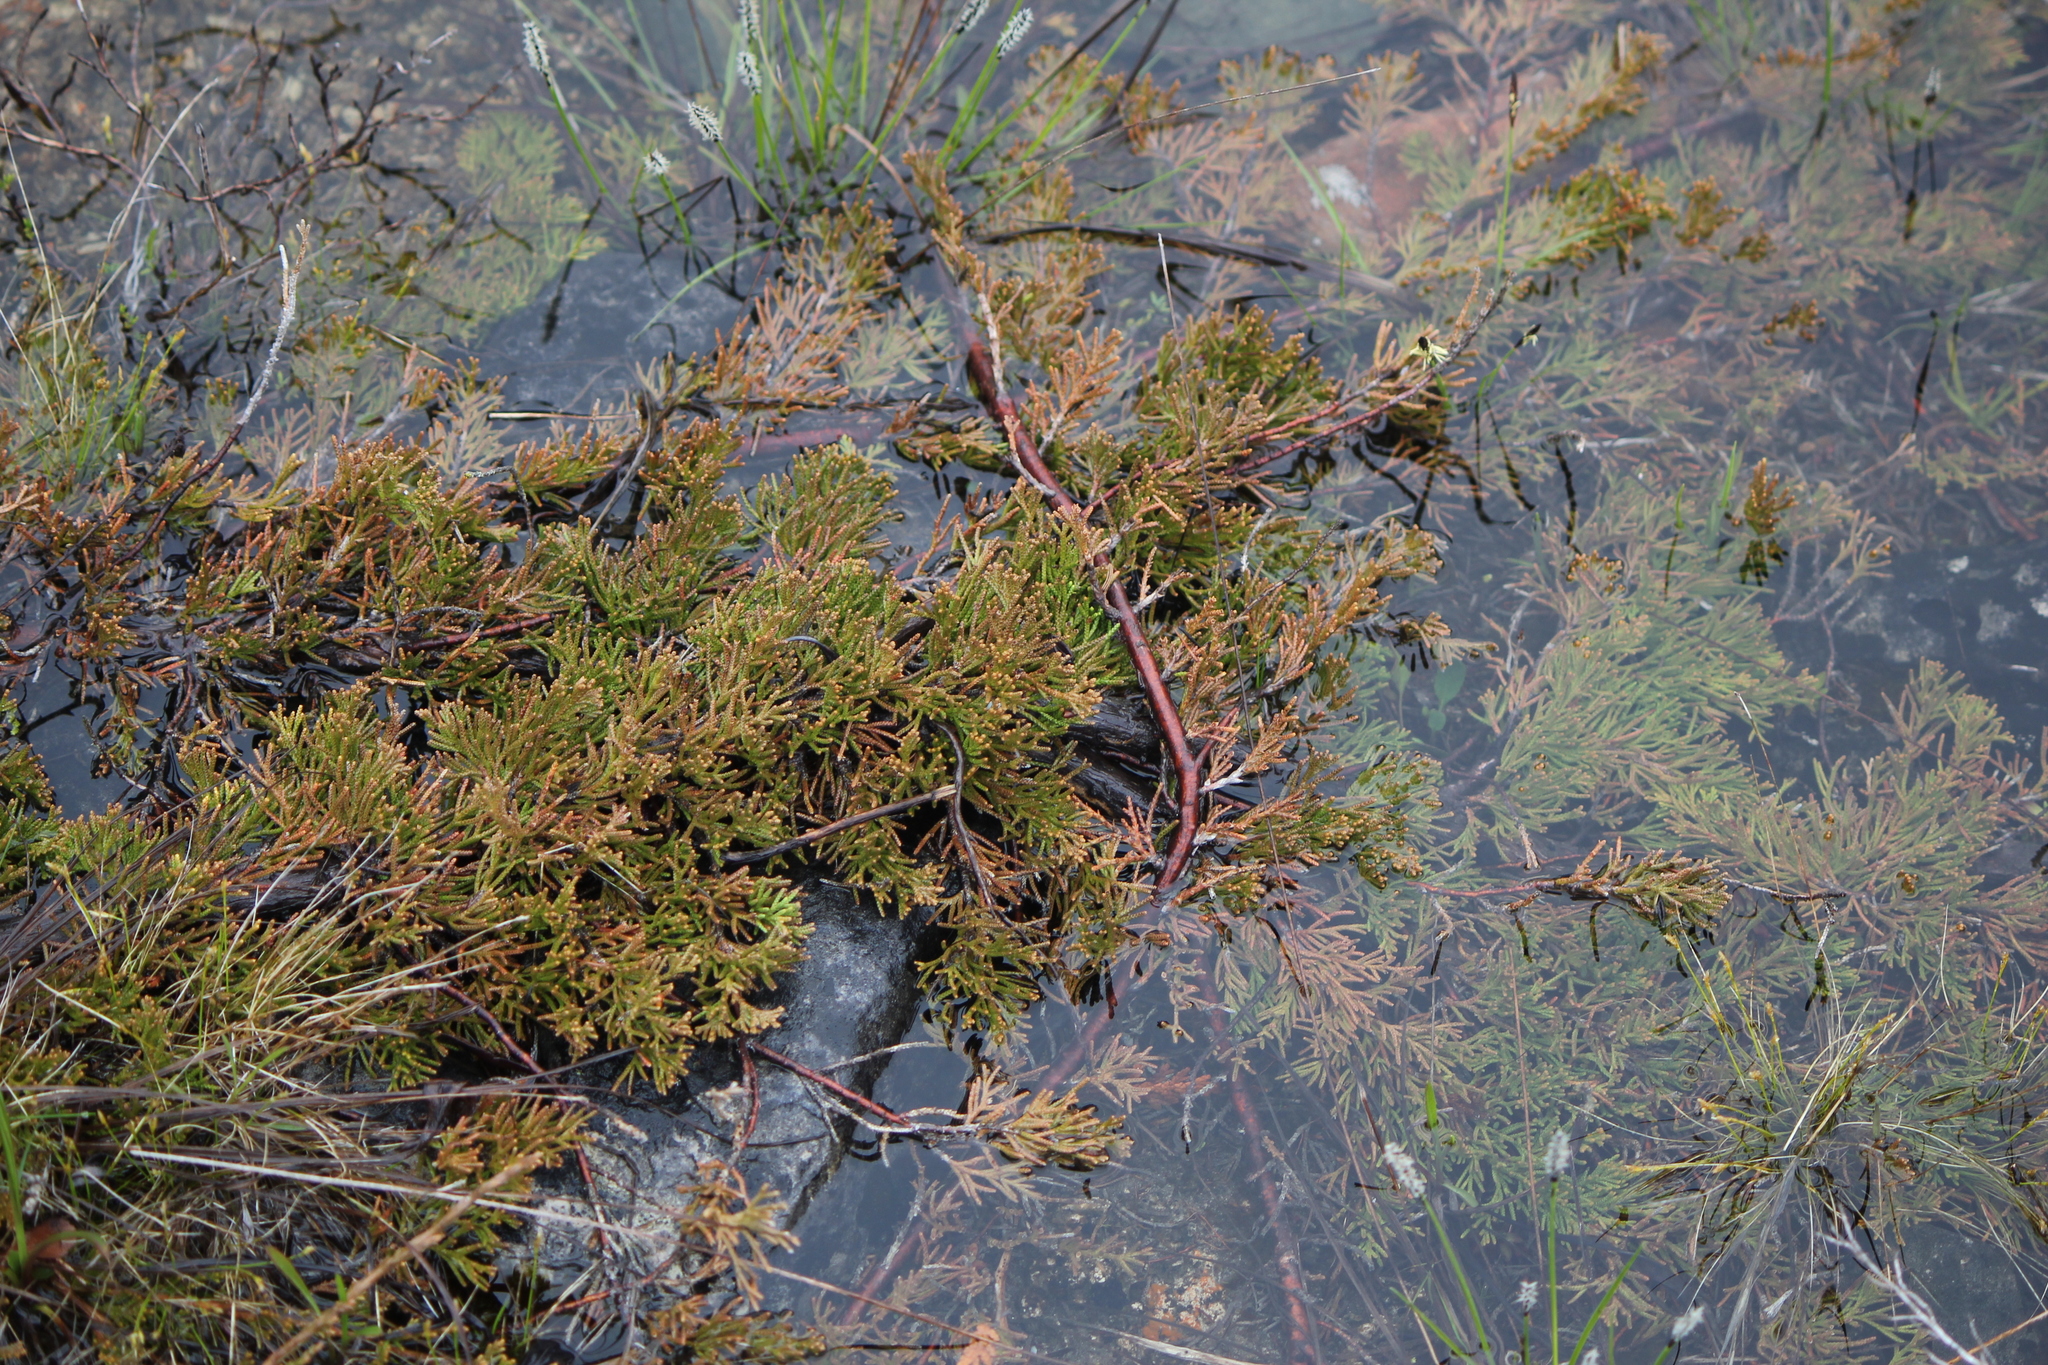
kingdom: Plantae
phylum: Tracheophyta
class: Pinopsida
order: Pinales
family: Cupressaceae
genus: Juniperus
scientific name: Juniperus horizontalis
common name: Creeping juniper
